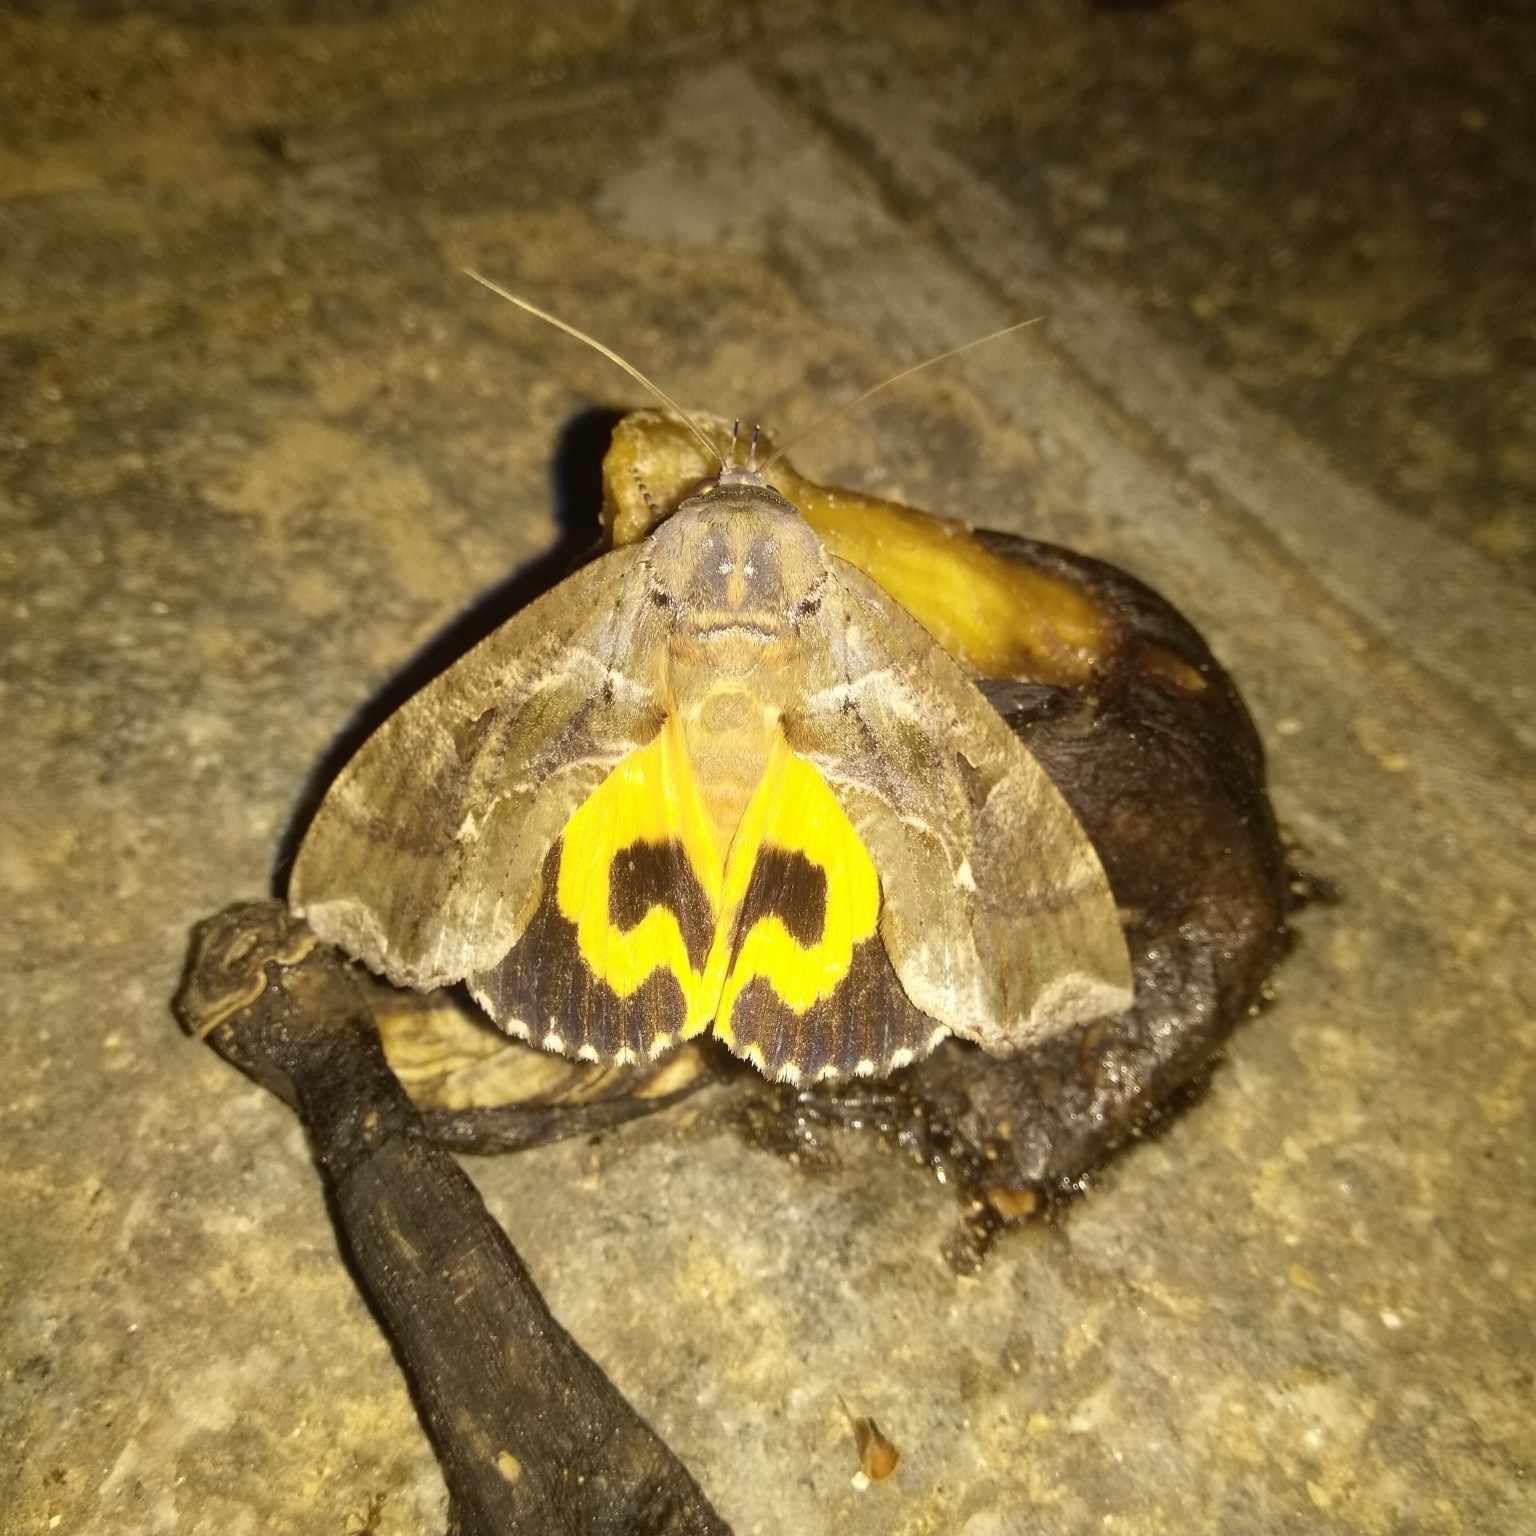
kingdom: Animalia
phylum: Arthropoda
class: Insecta
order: Lepidoptera
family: Erebidae
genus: Eudocima
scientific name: Eudocima phalonia
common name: Wasp
